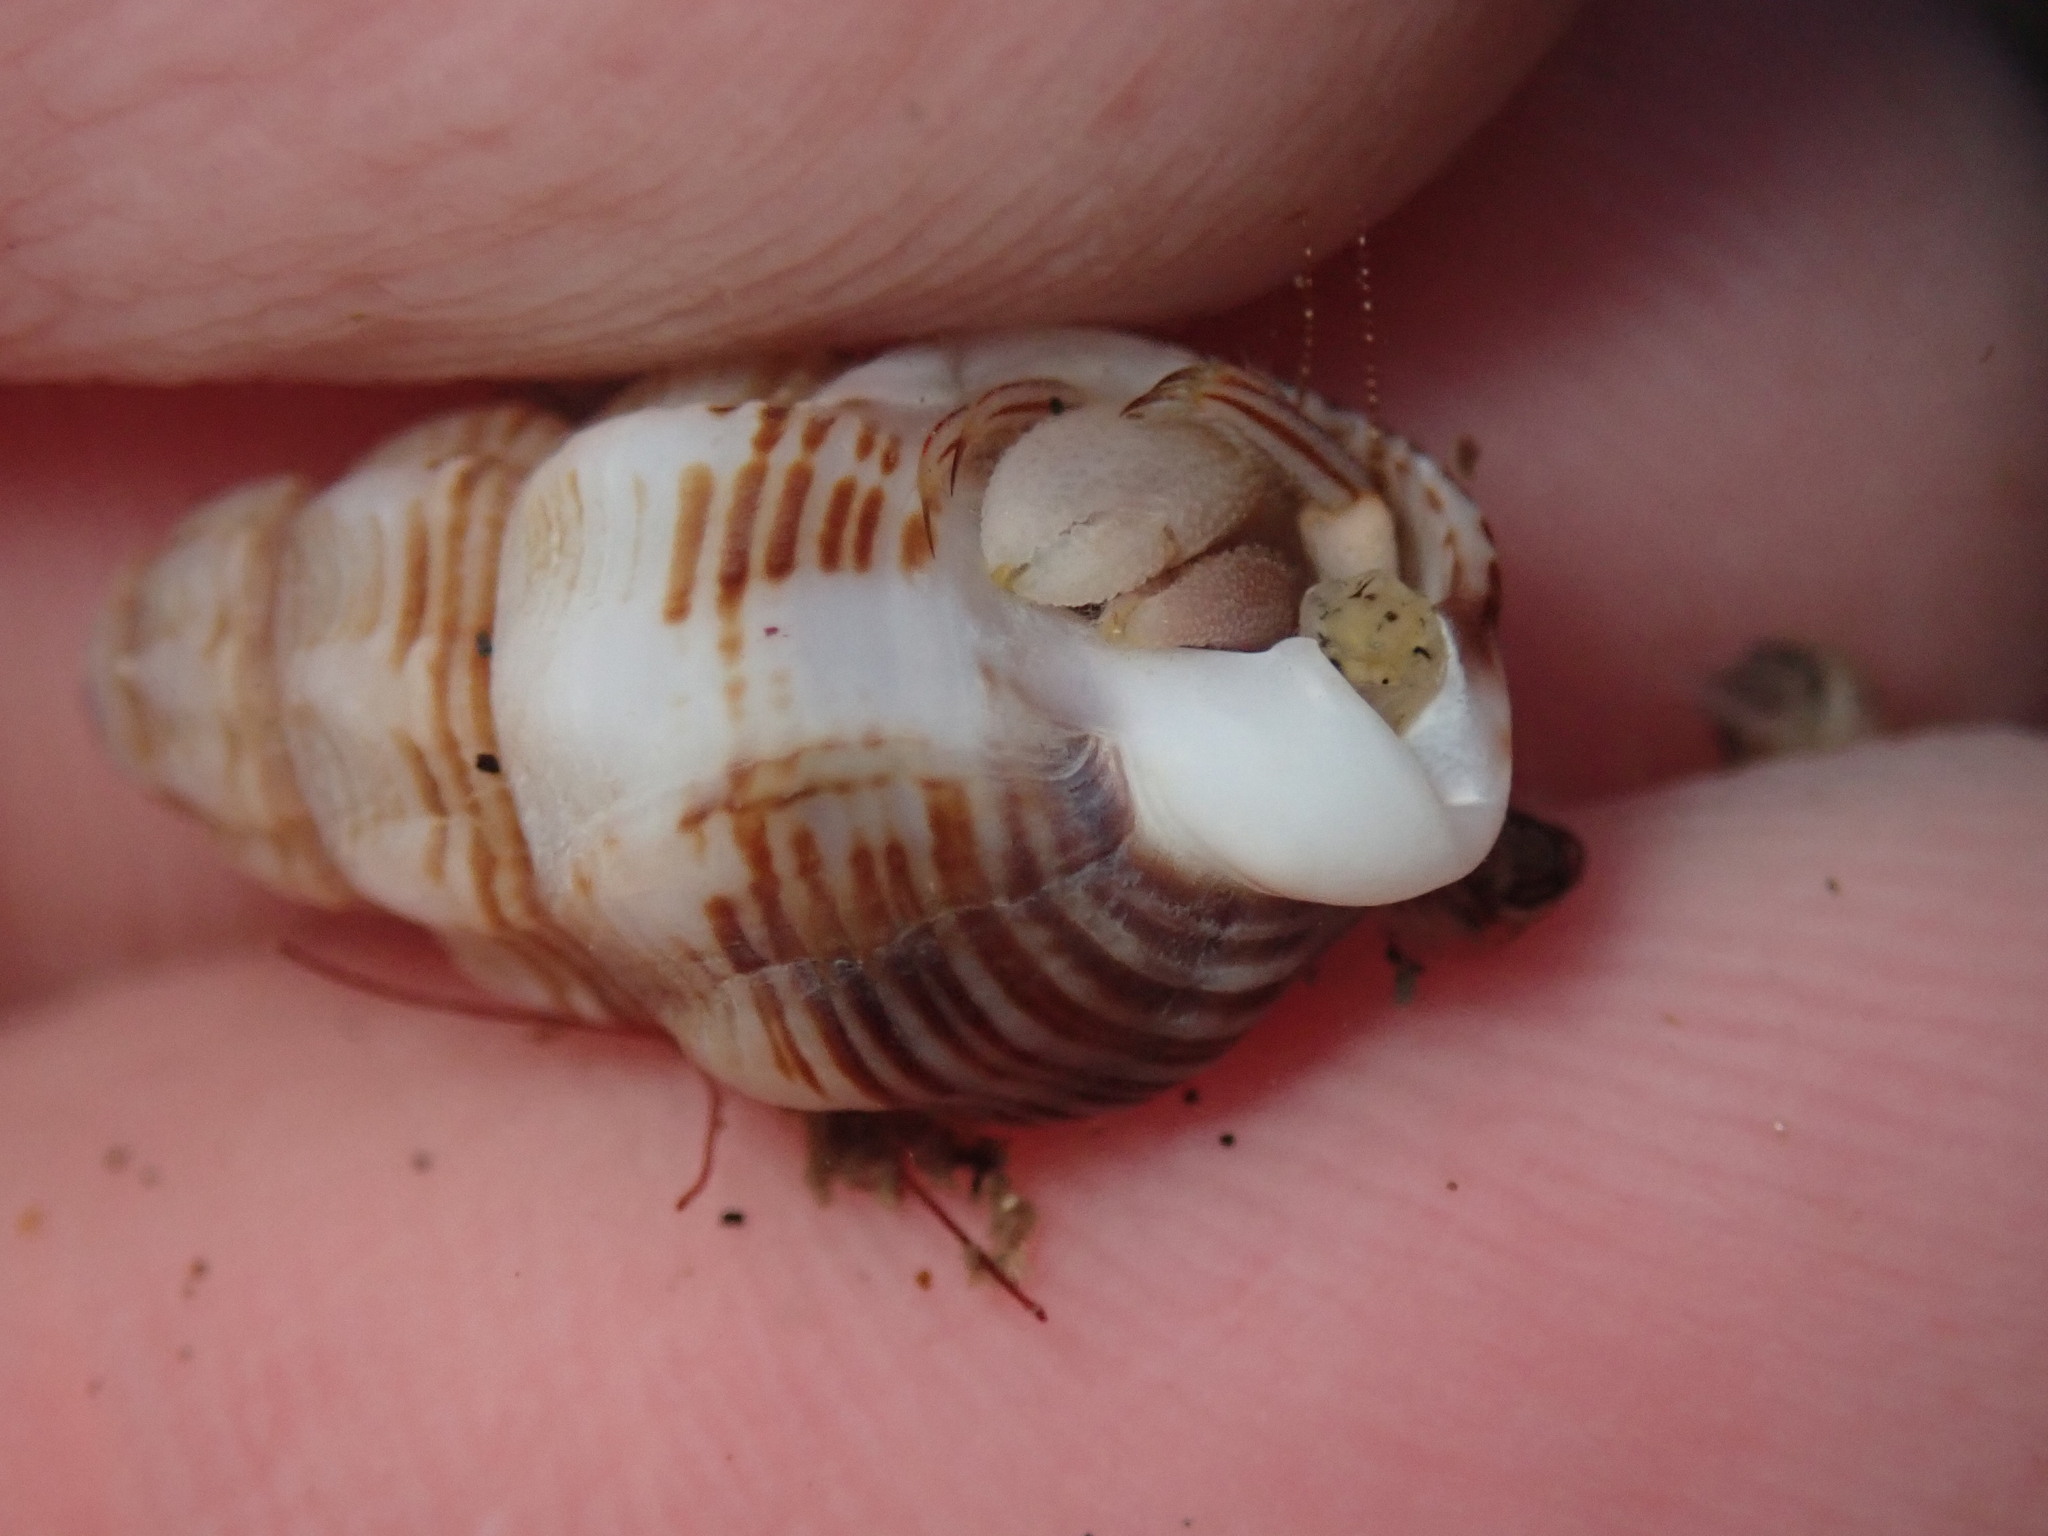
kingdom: Animalia
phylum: Mollusca
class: Gastropoda
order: Neogastropoda
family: Nassariidae
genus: Nassarius
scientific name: Nassarius mendicus
